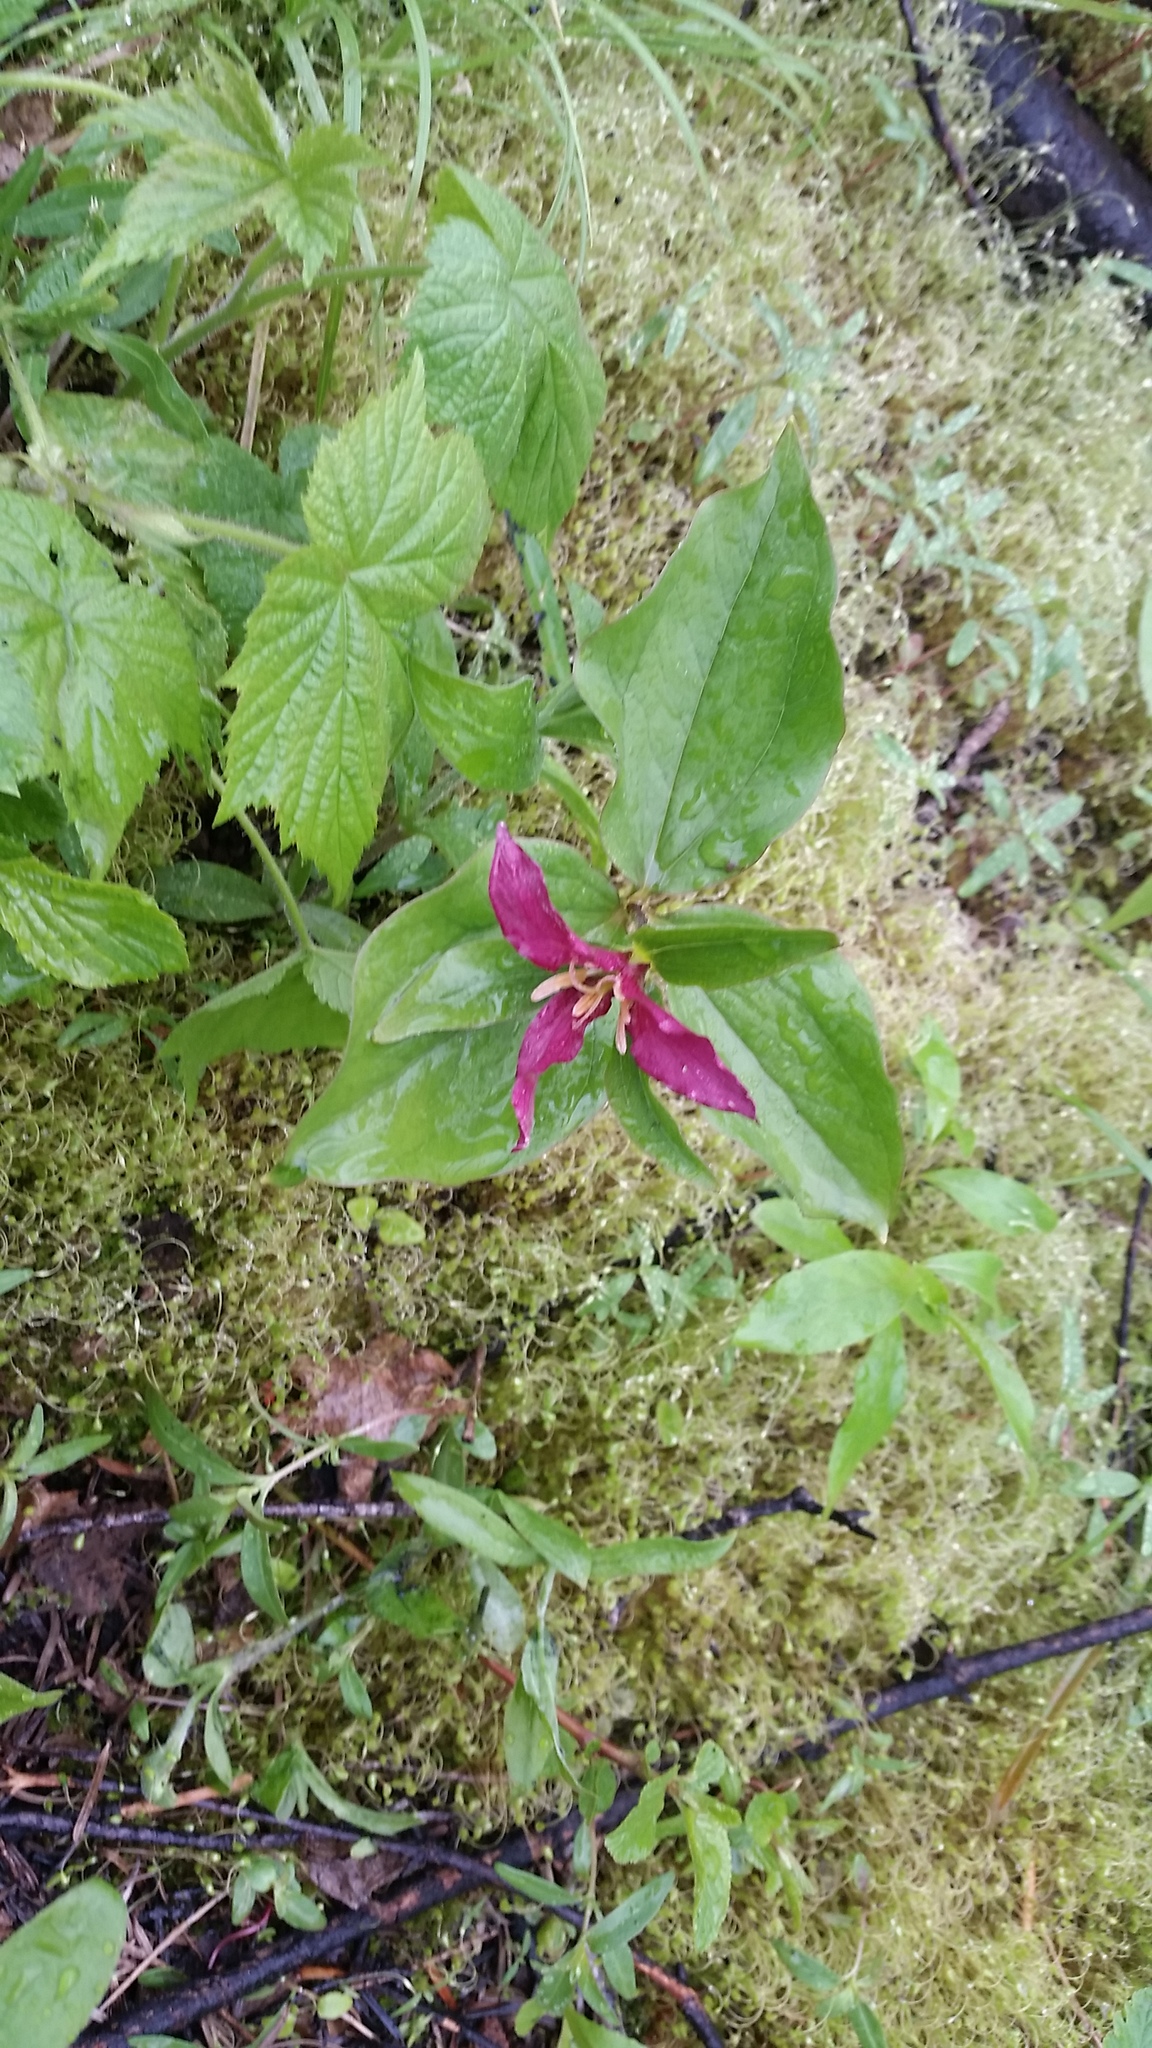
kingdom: Plantae
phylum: Tracheophyta
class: Liliopsida
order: Liliales
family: Melanthiaceae
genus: Trillium
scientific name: Trillium ovatum
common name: Pacific trillium
